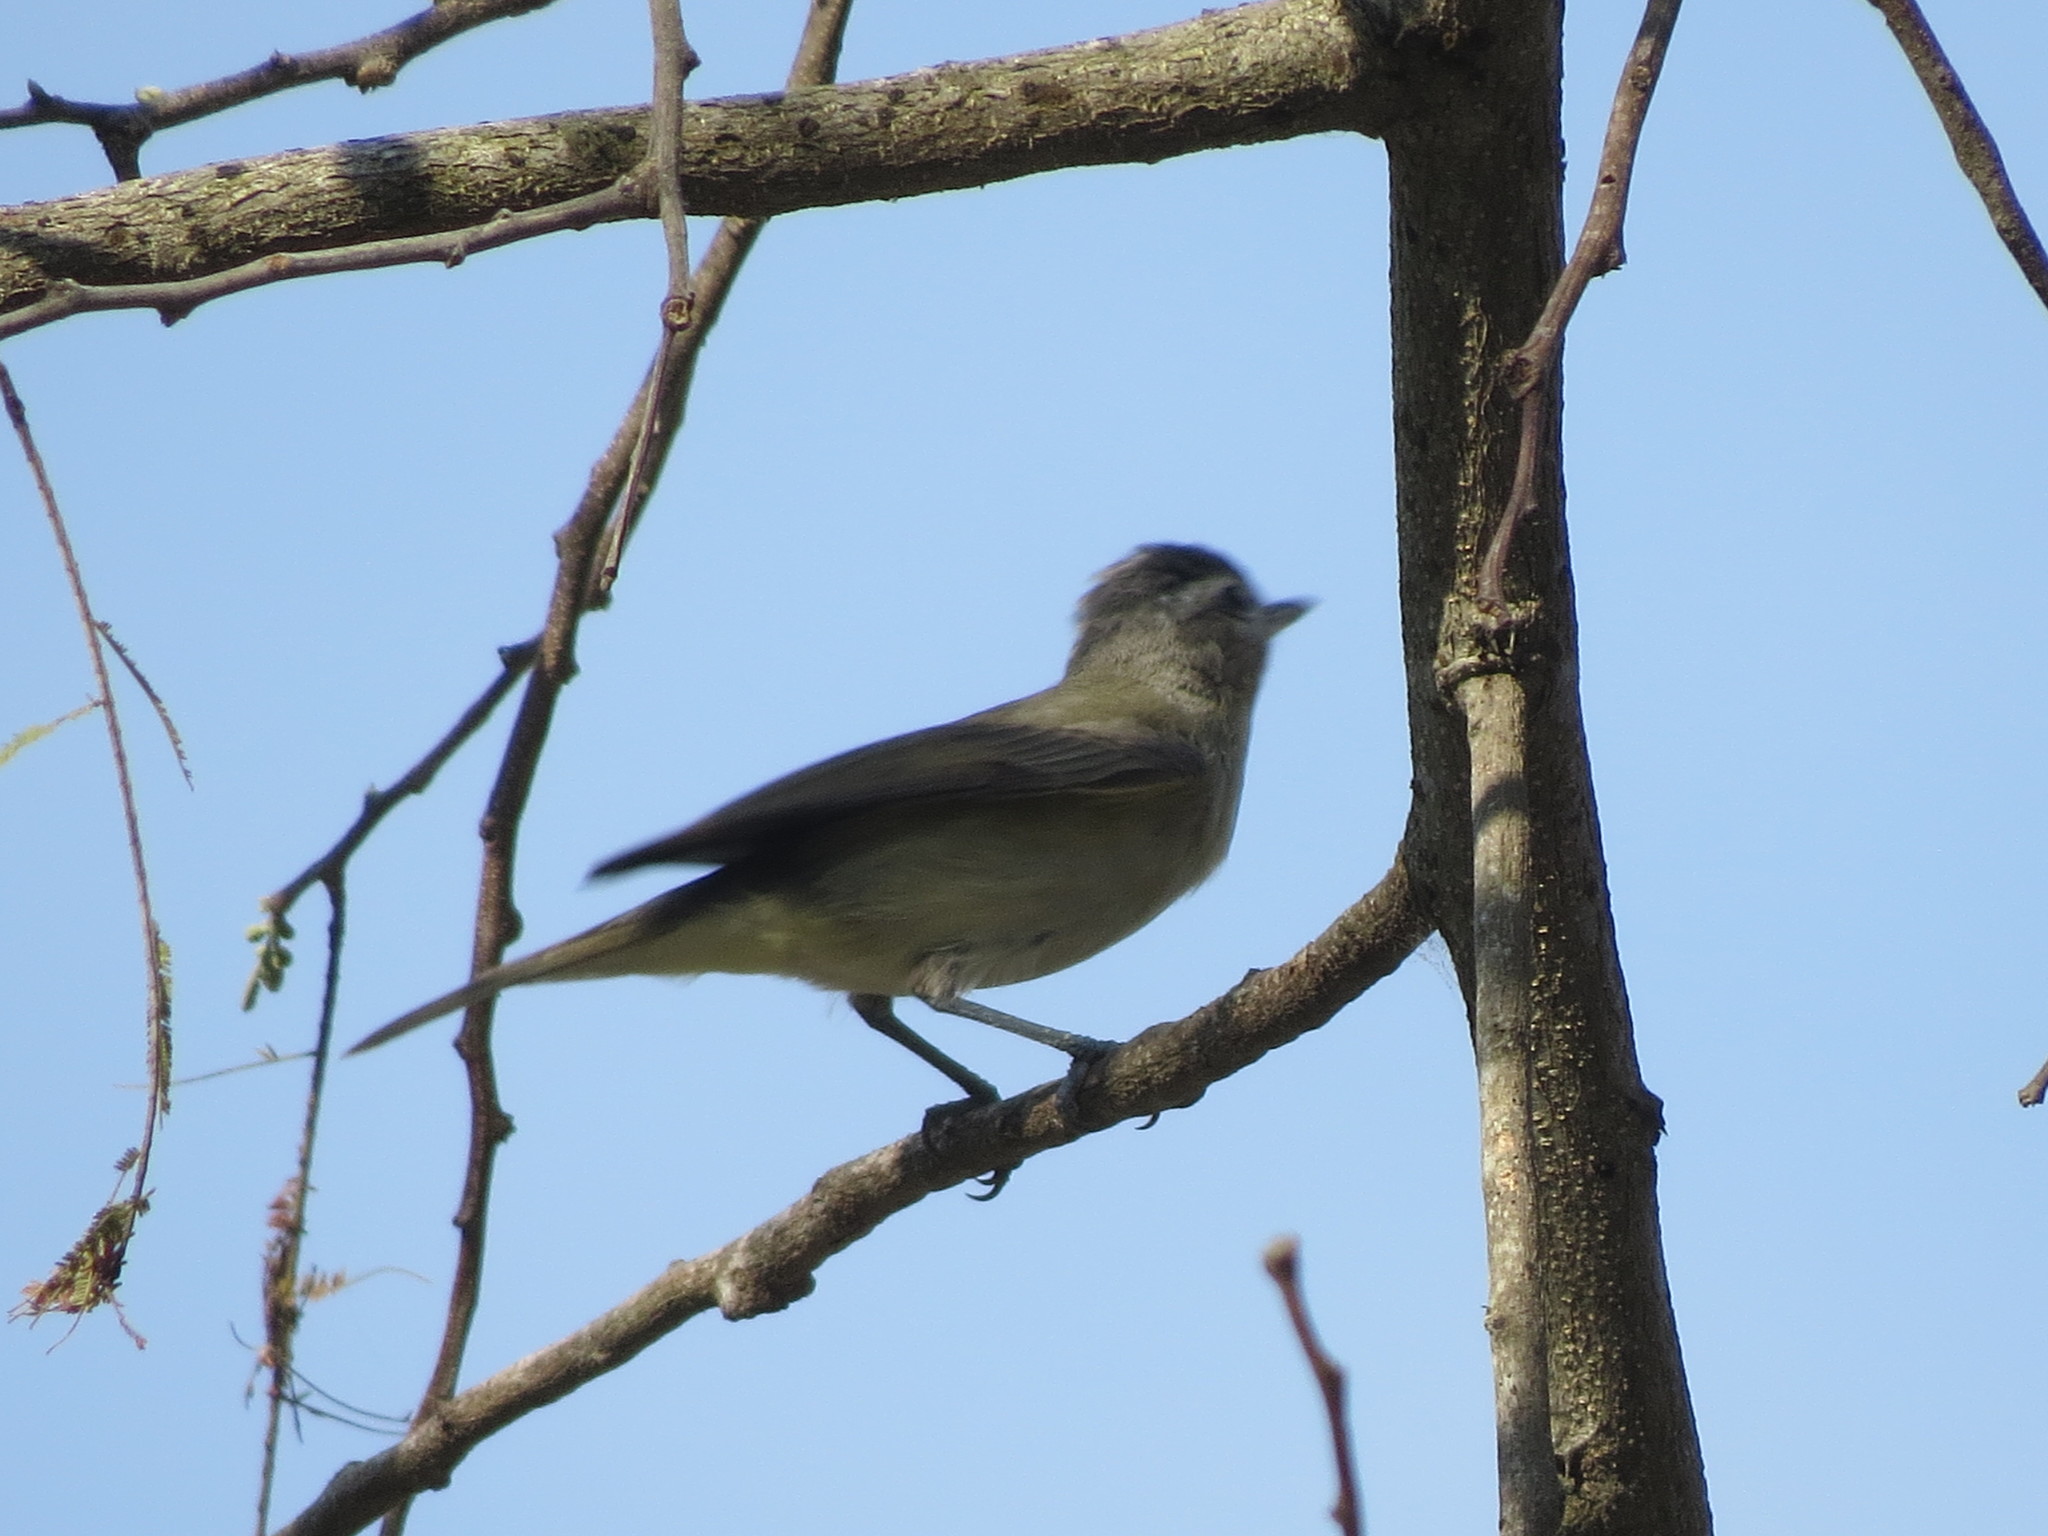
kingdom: Animalia
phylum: Chordata
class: Aves
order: Passeriformes
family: Vireonidae
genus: Vireo
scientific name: Vireo gilvus
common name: Warbling vireo
